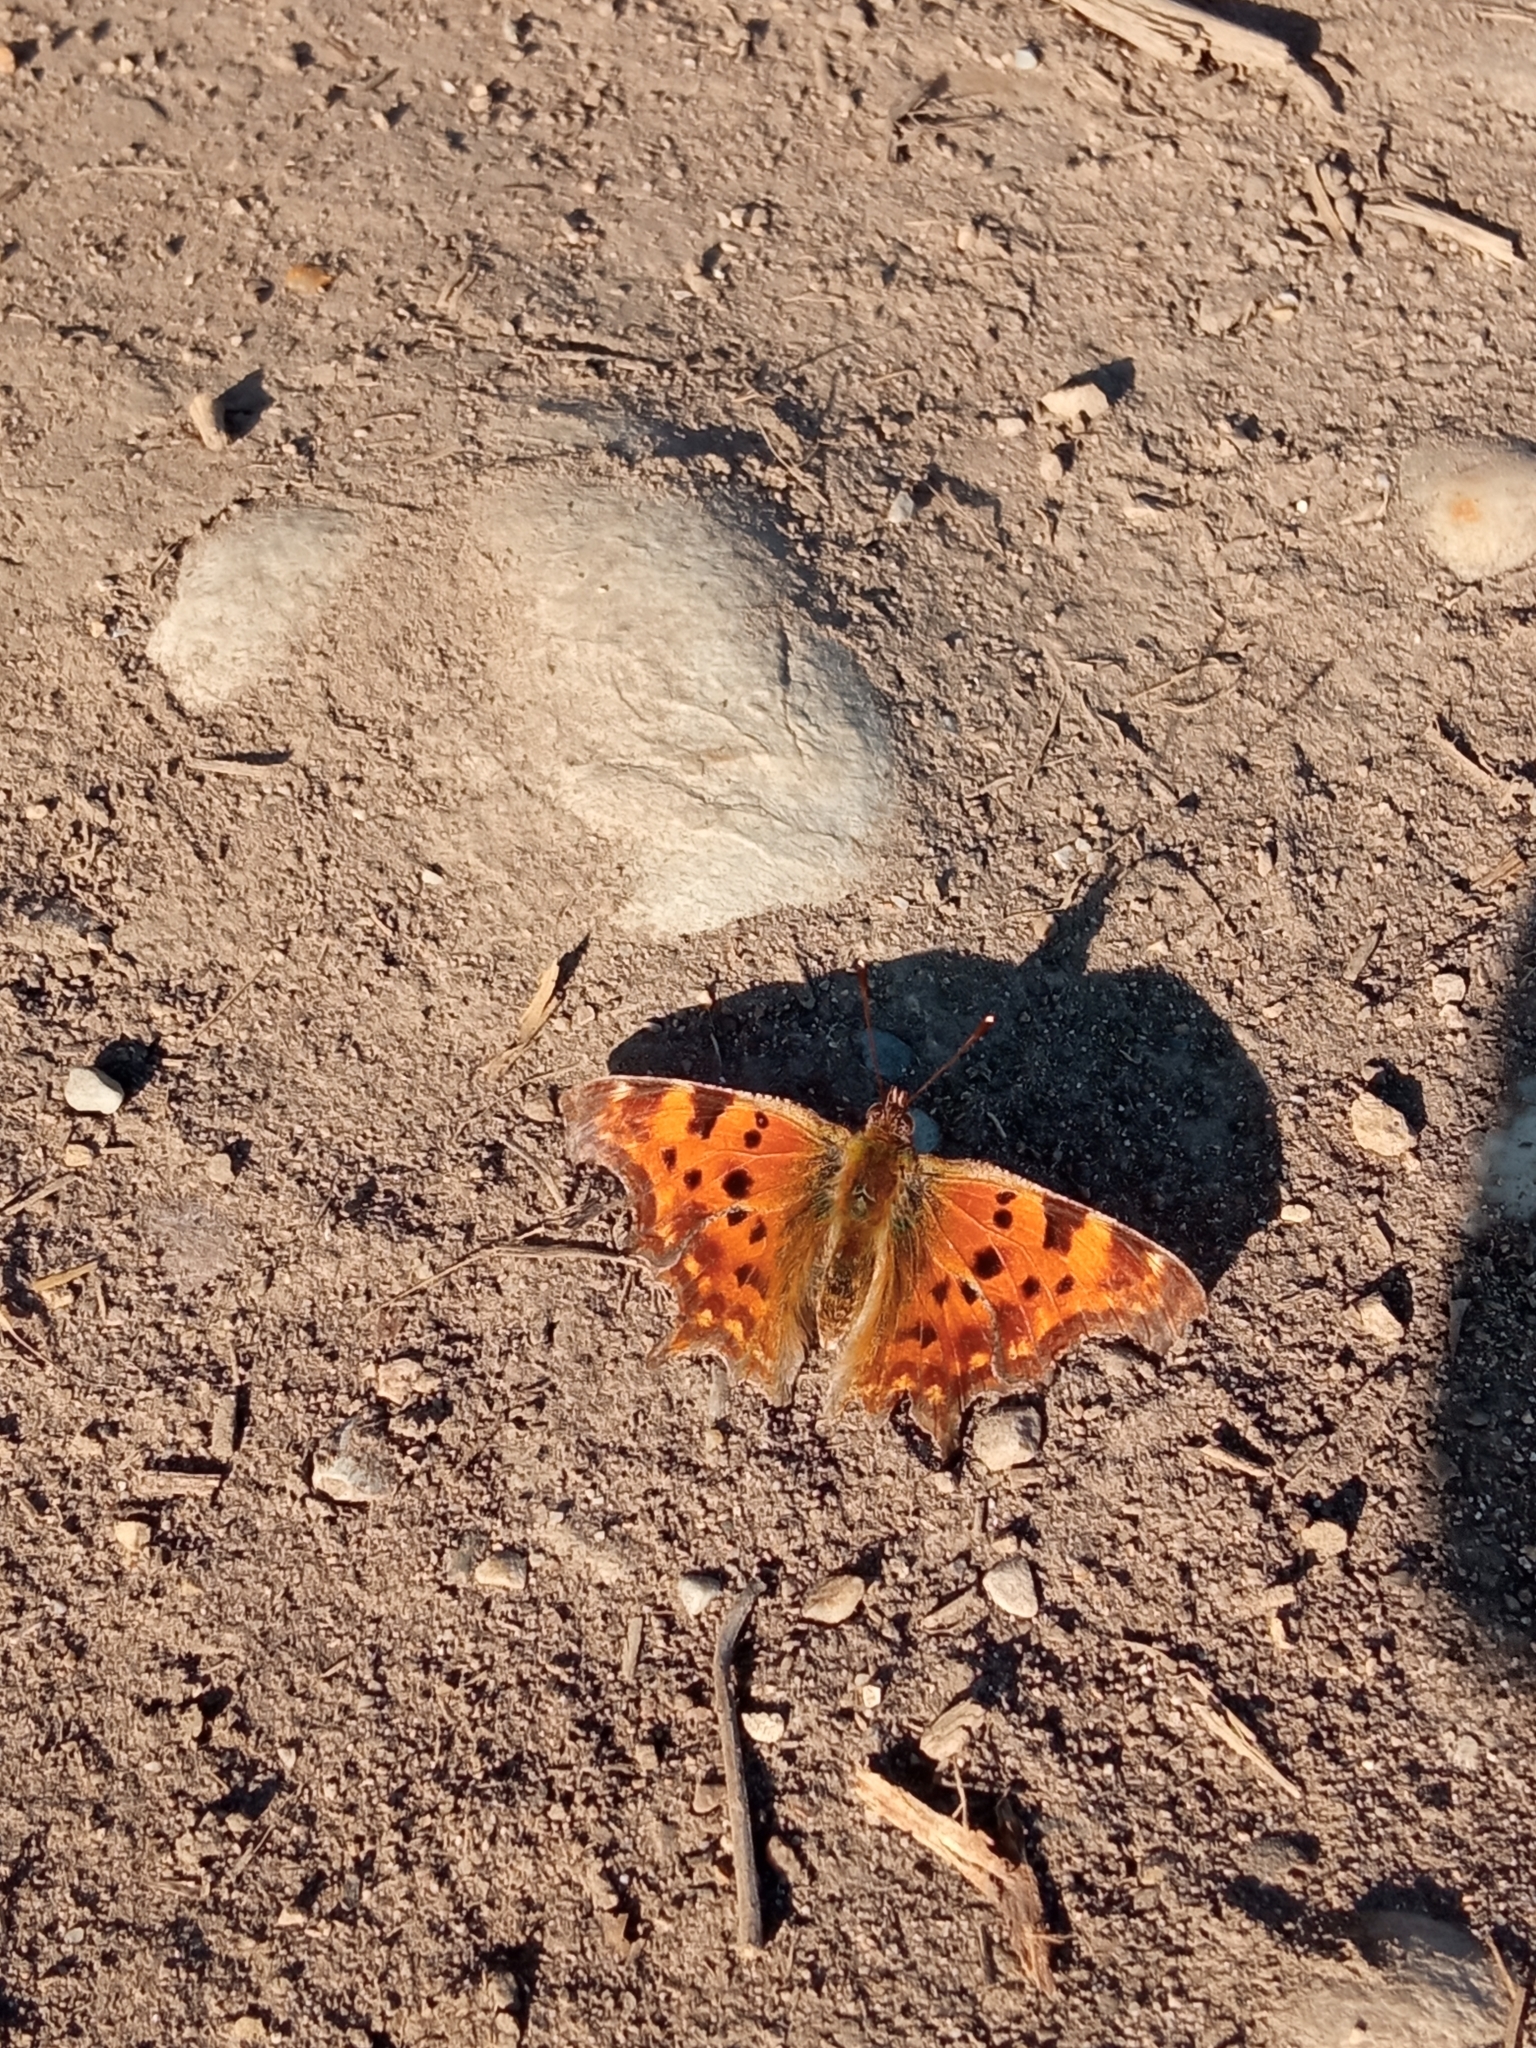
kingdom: Animalia
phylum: Arthropoda
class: Insecta
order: Lepidoptera
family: Nymphalidae
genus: Polygonia
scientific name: Polygonia c-album
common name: Comma
